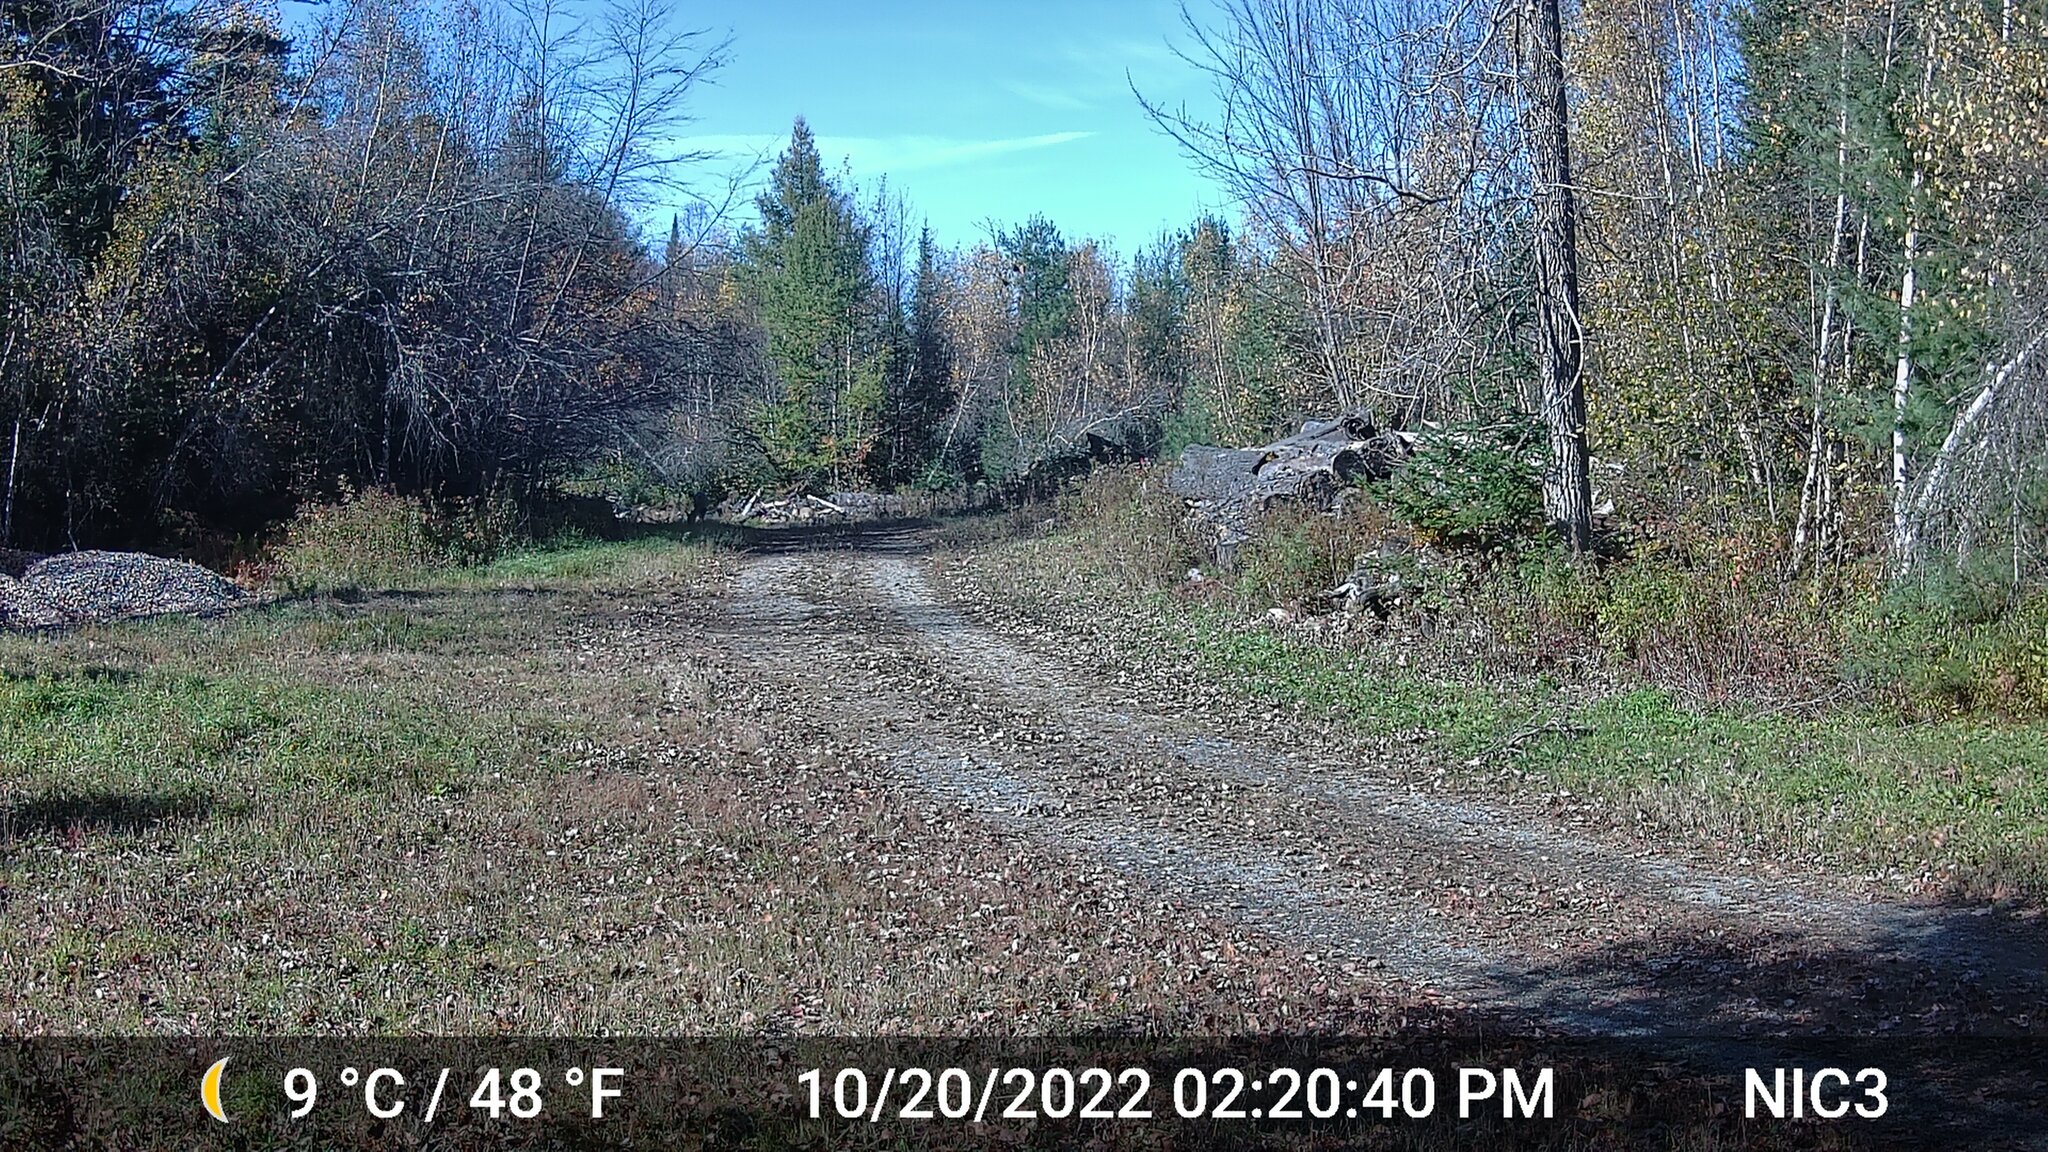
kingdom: Animalia
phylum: Chordata
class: Mammalia
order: Artiodactyla
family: Cervidae
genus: Odocoileus
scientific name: Odocoileus virginianus
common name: White-tailed deer
